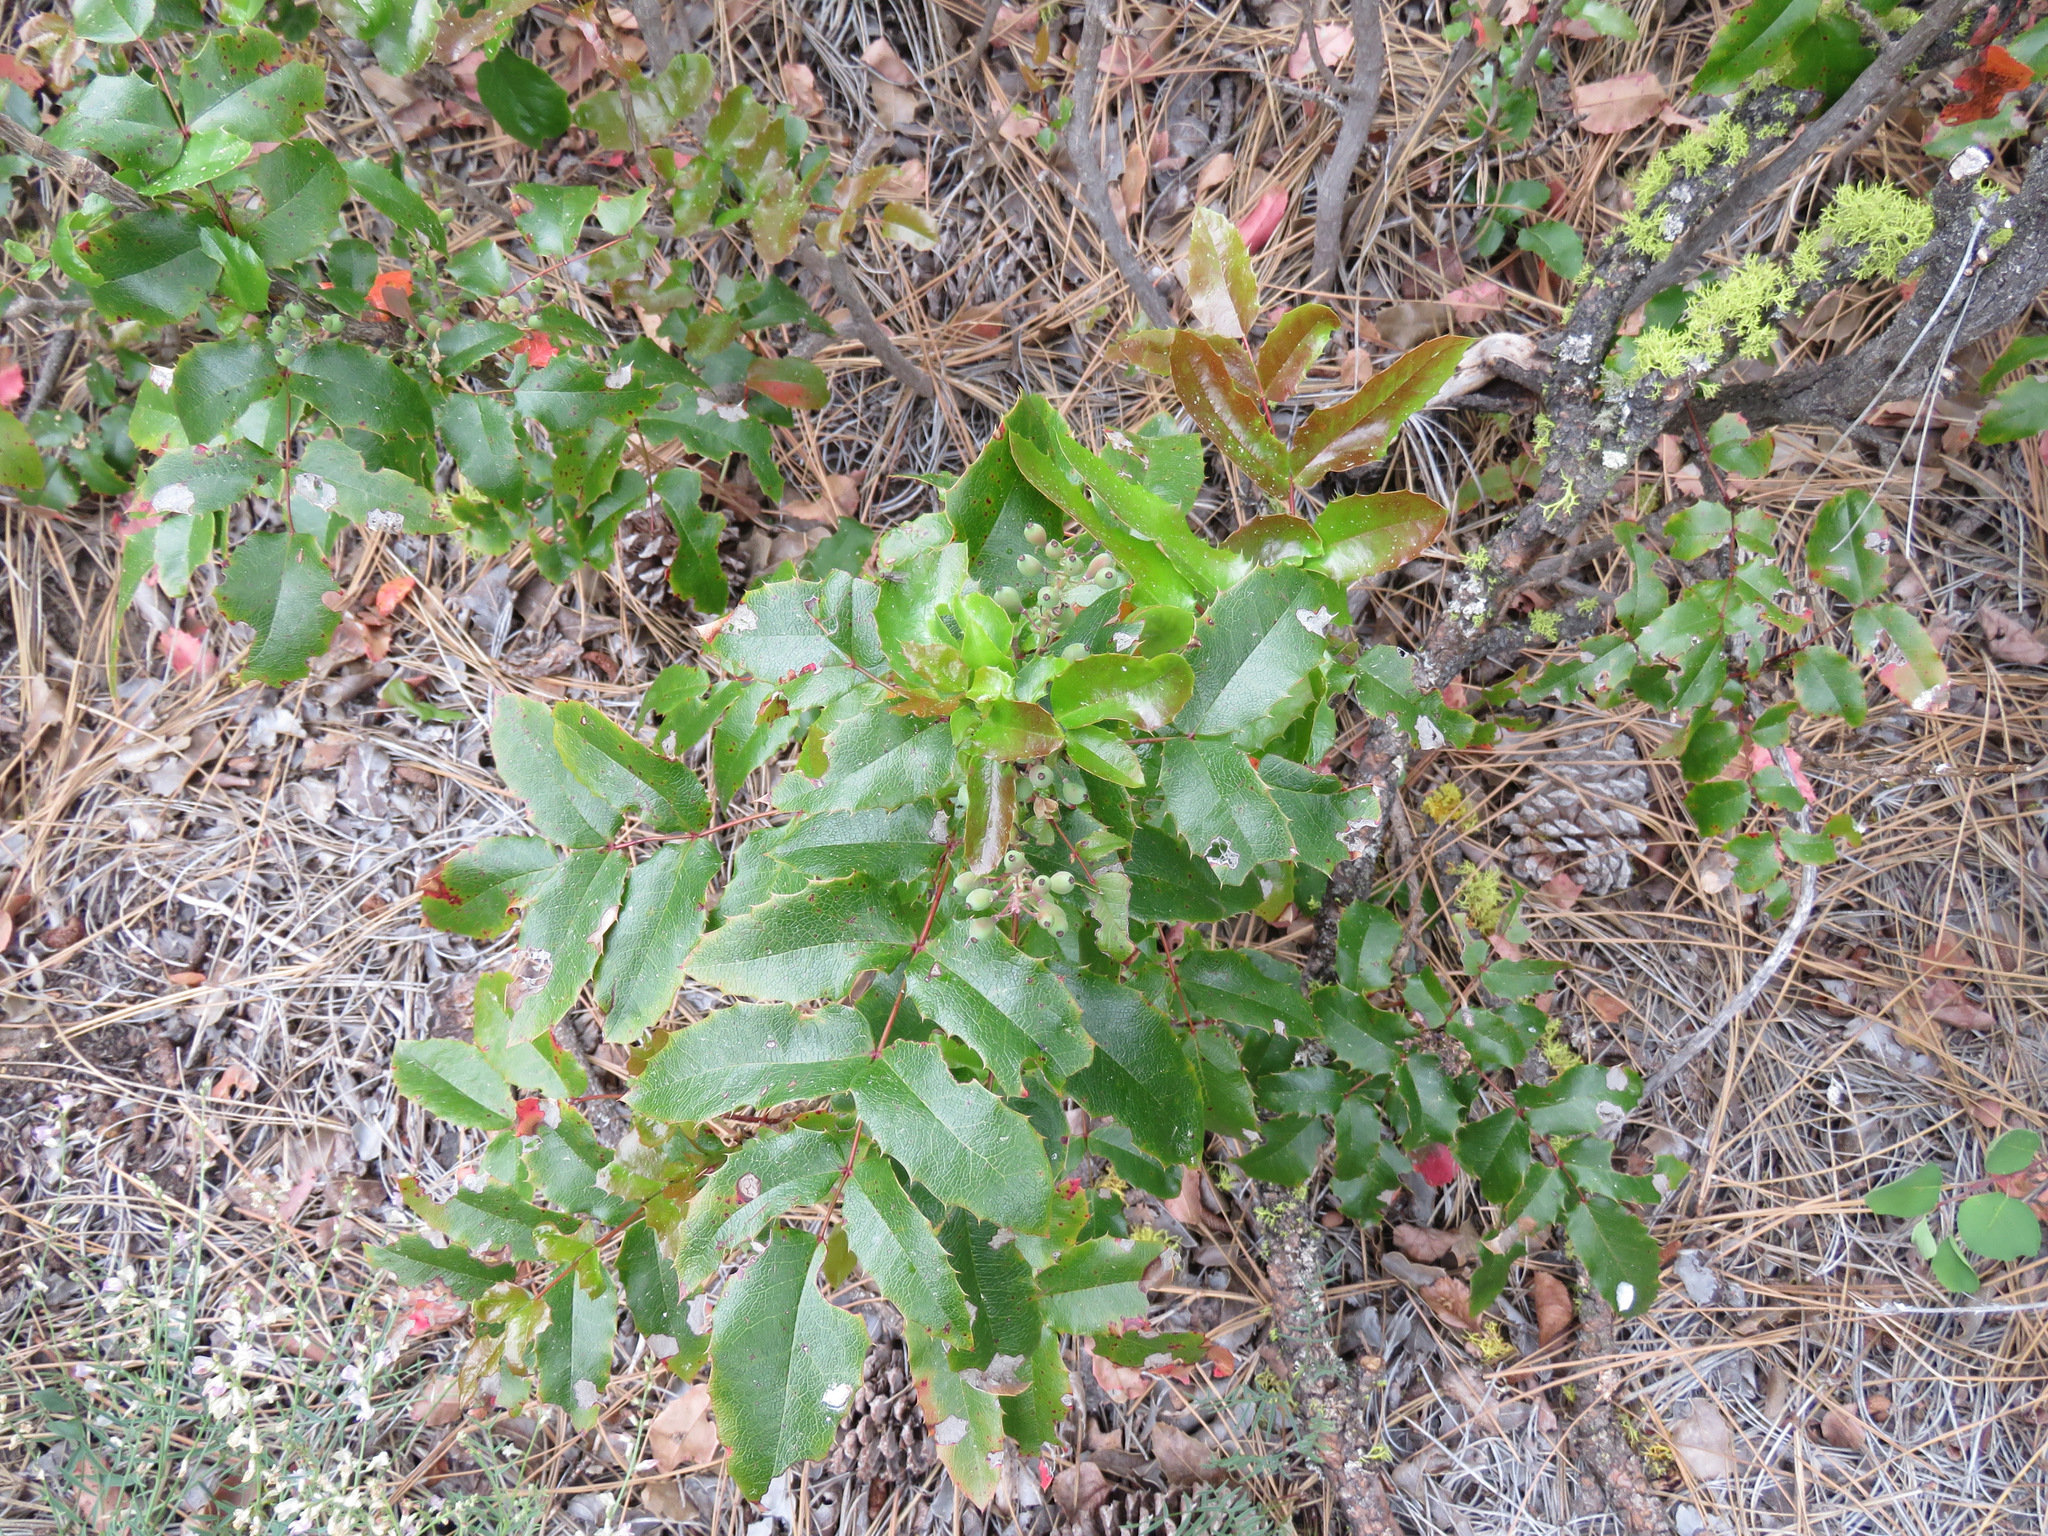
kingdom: Plantae
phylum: Tracheophyta
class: Magnoliopsida
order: Ranunculales
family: Berberidaceae
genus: Mahonia
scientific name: Mahonia aquifolium
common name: Oregon-grape
